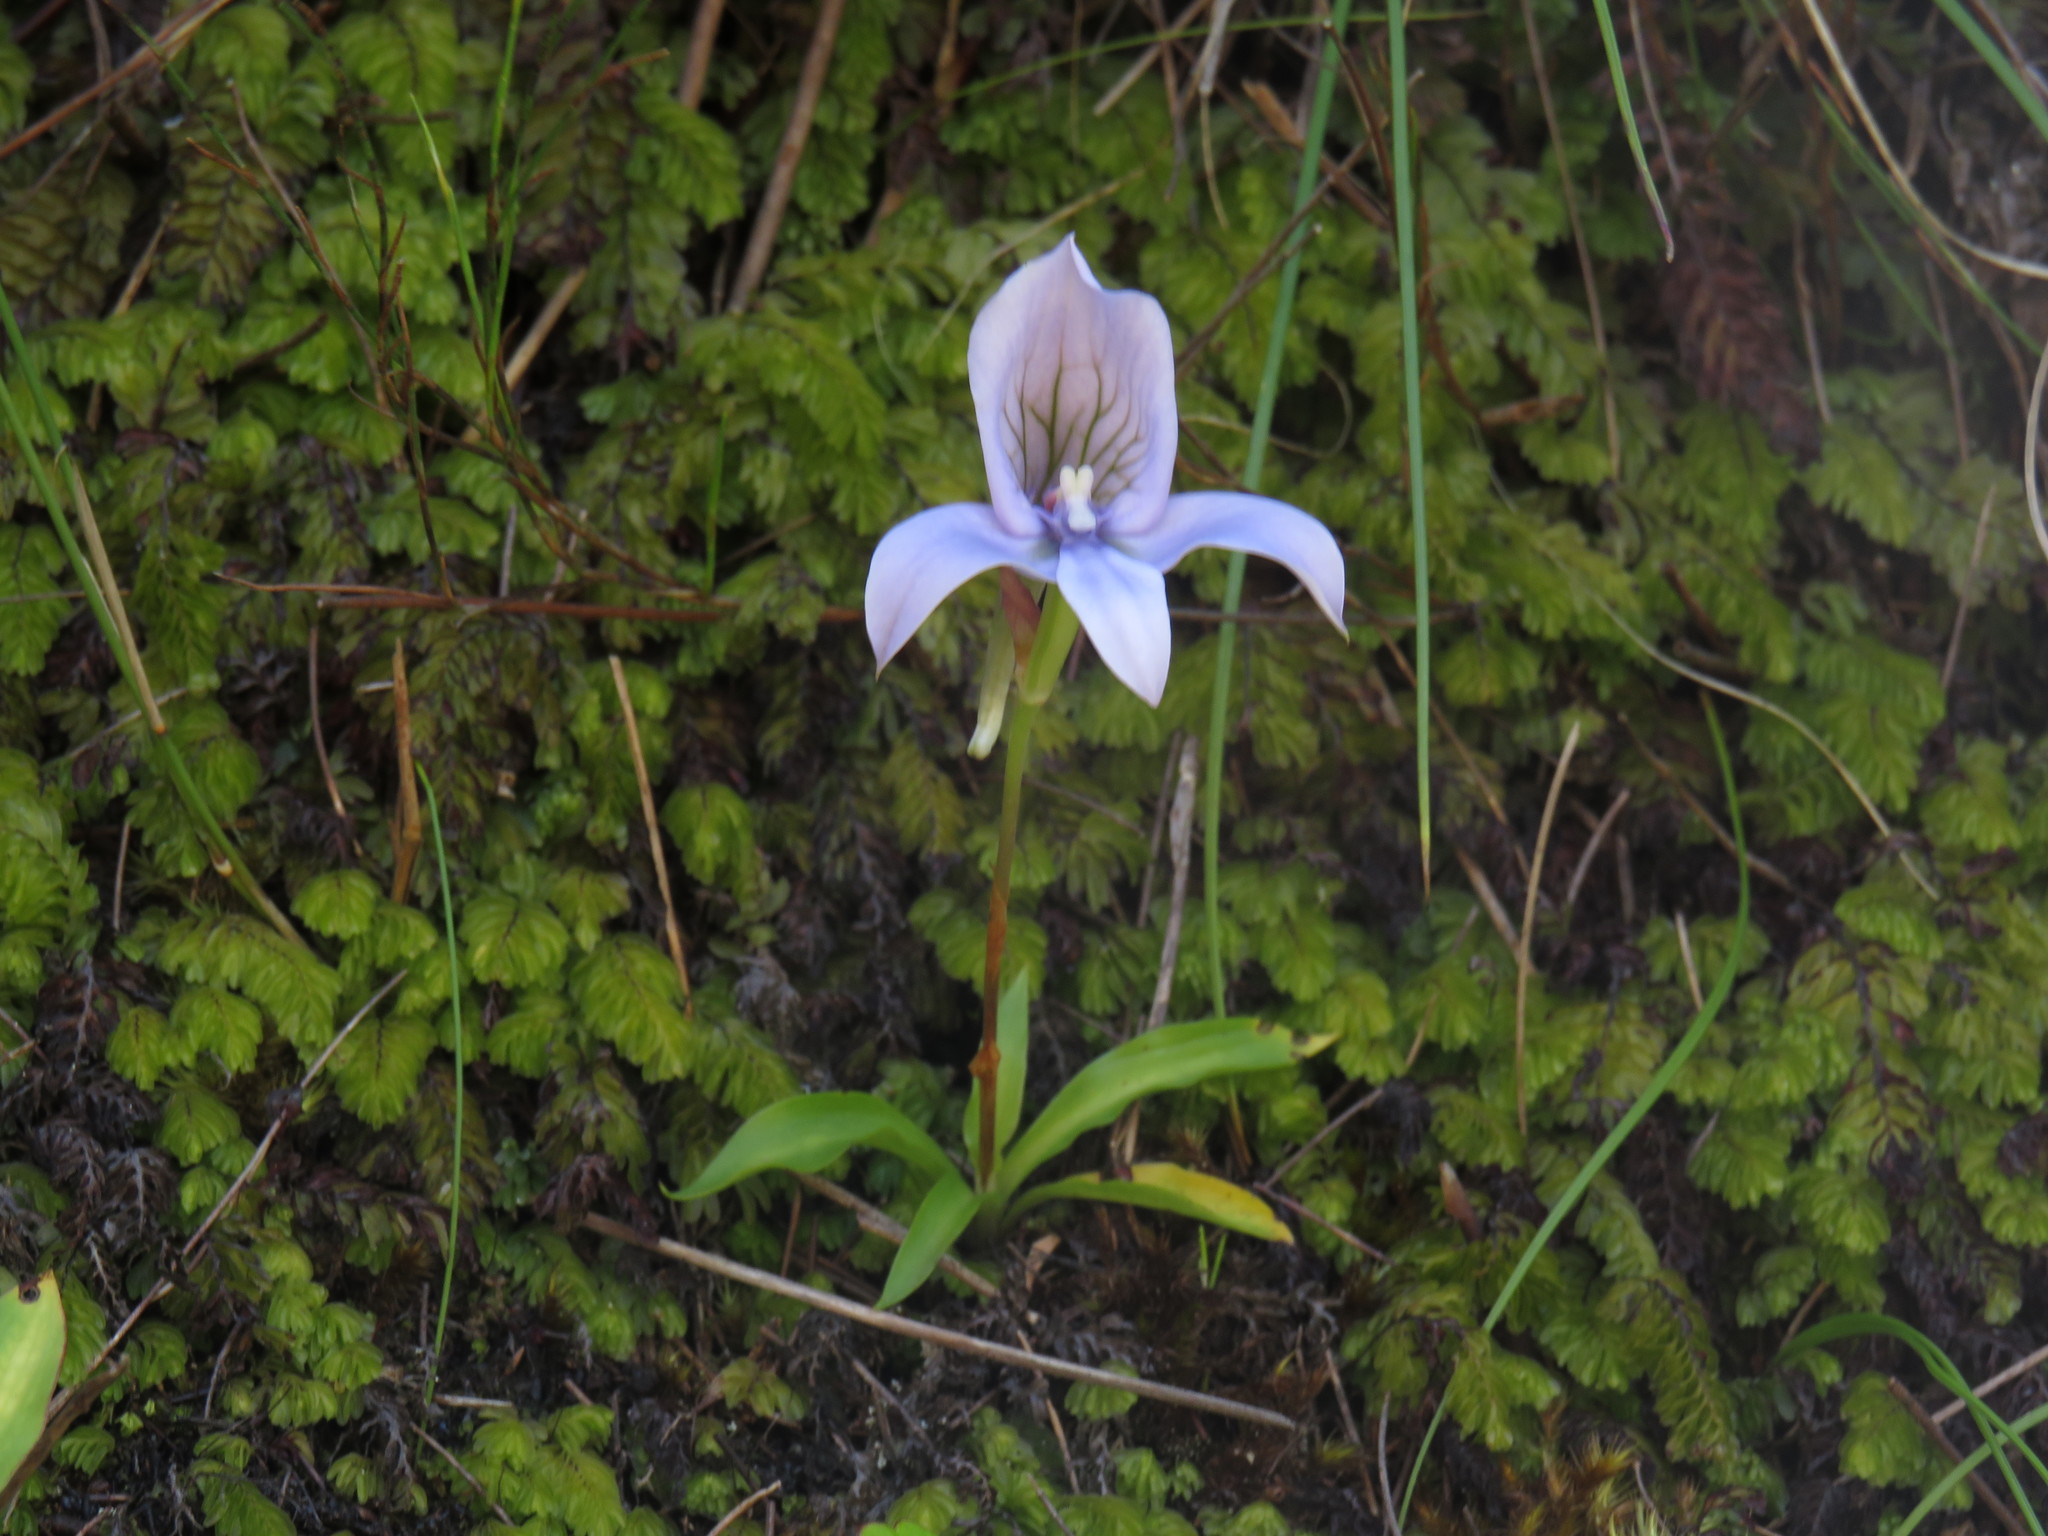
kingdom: Plantae
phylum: Tracheophyta
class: Liliopsida
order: Asparagales
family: Orchidaceae
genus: Disa
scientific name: Disa longicornu
